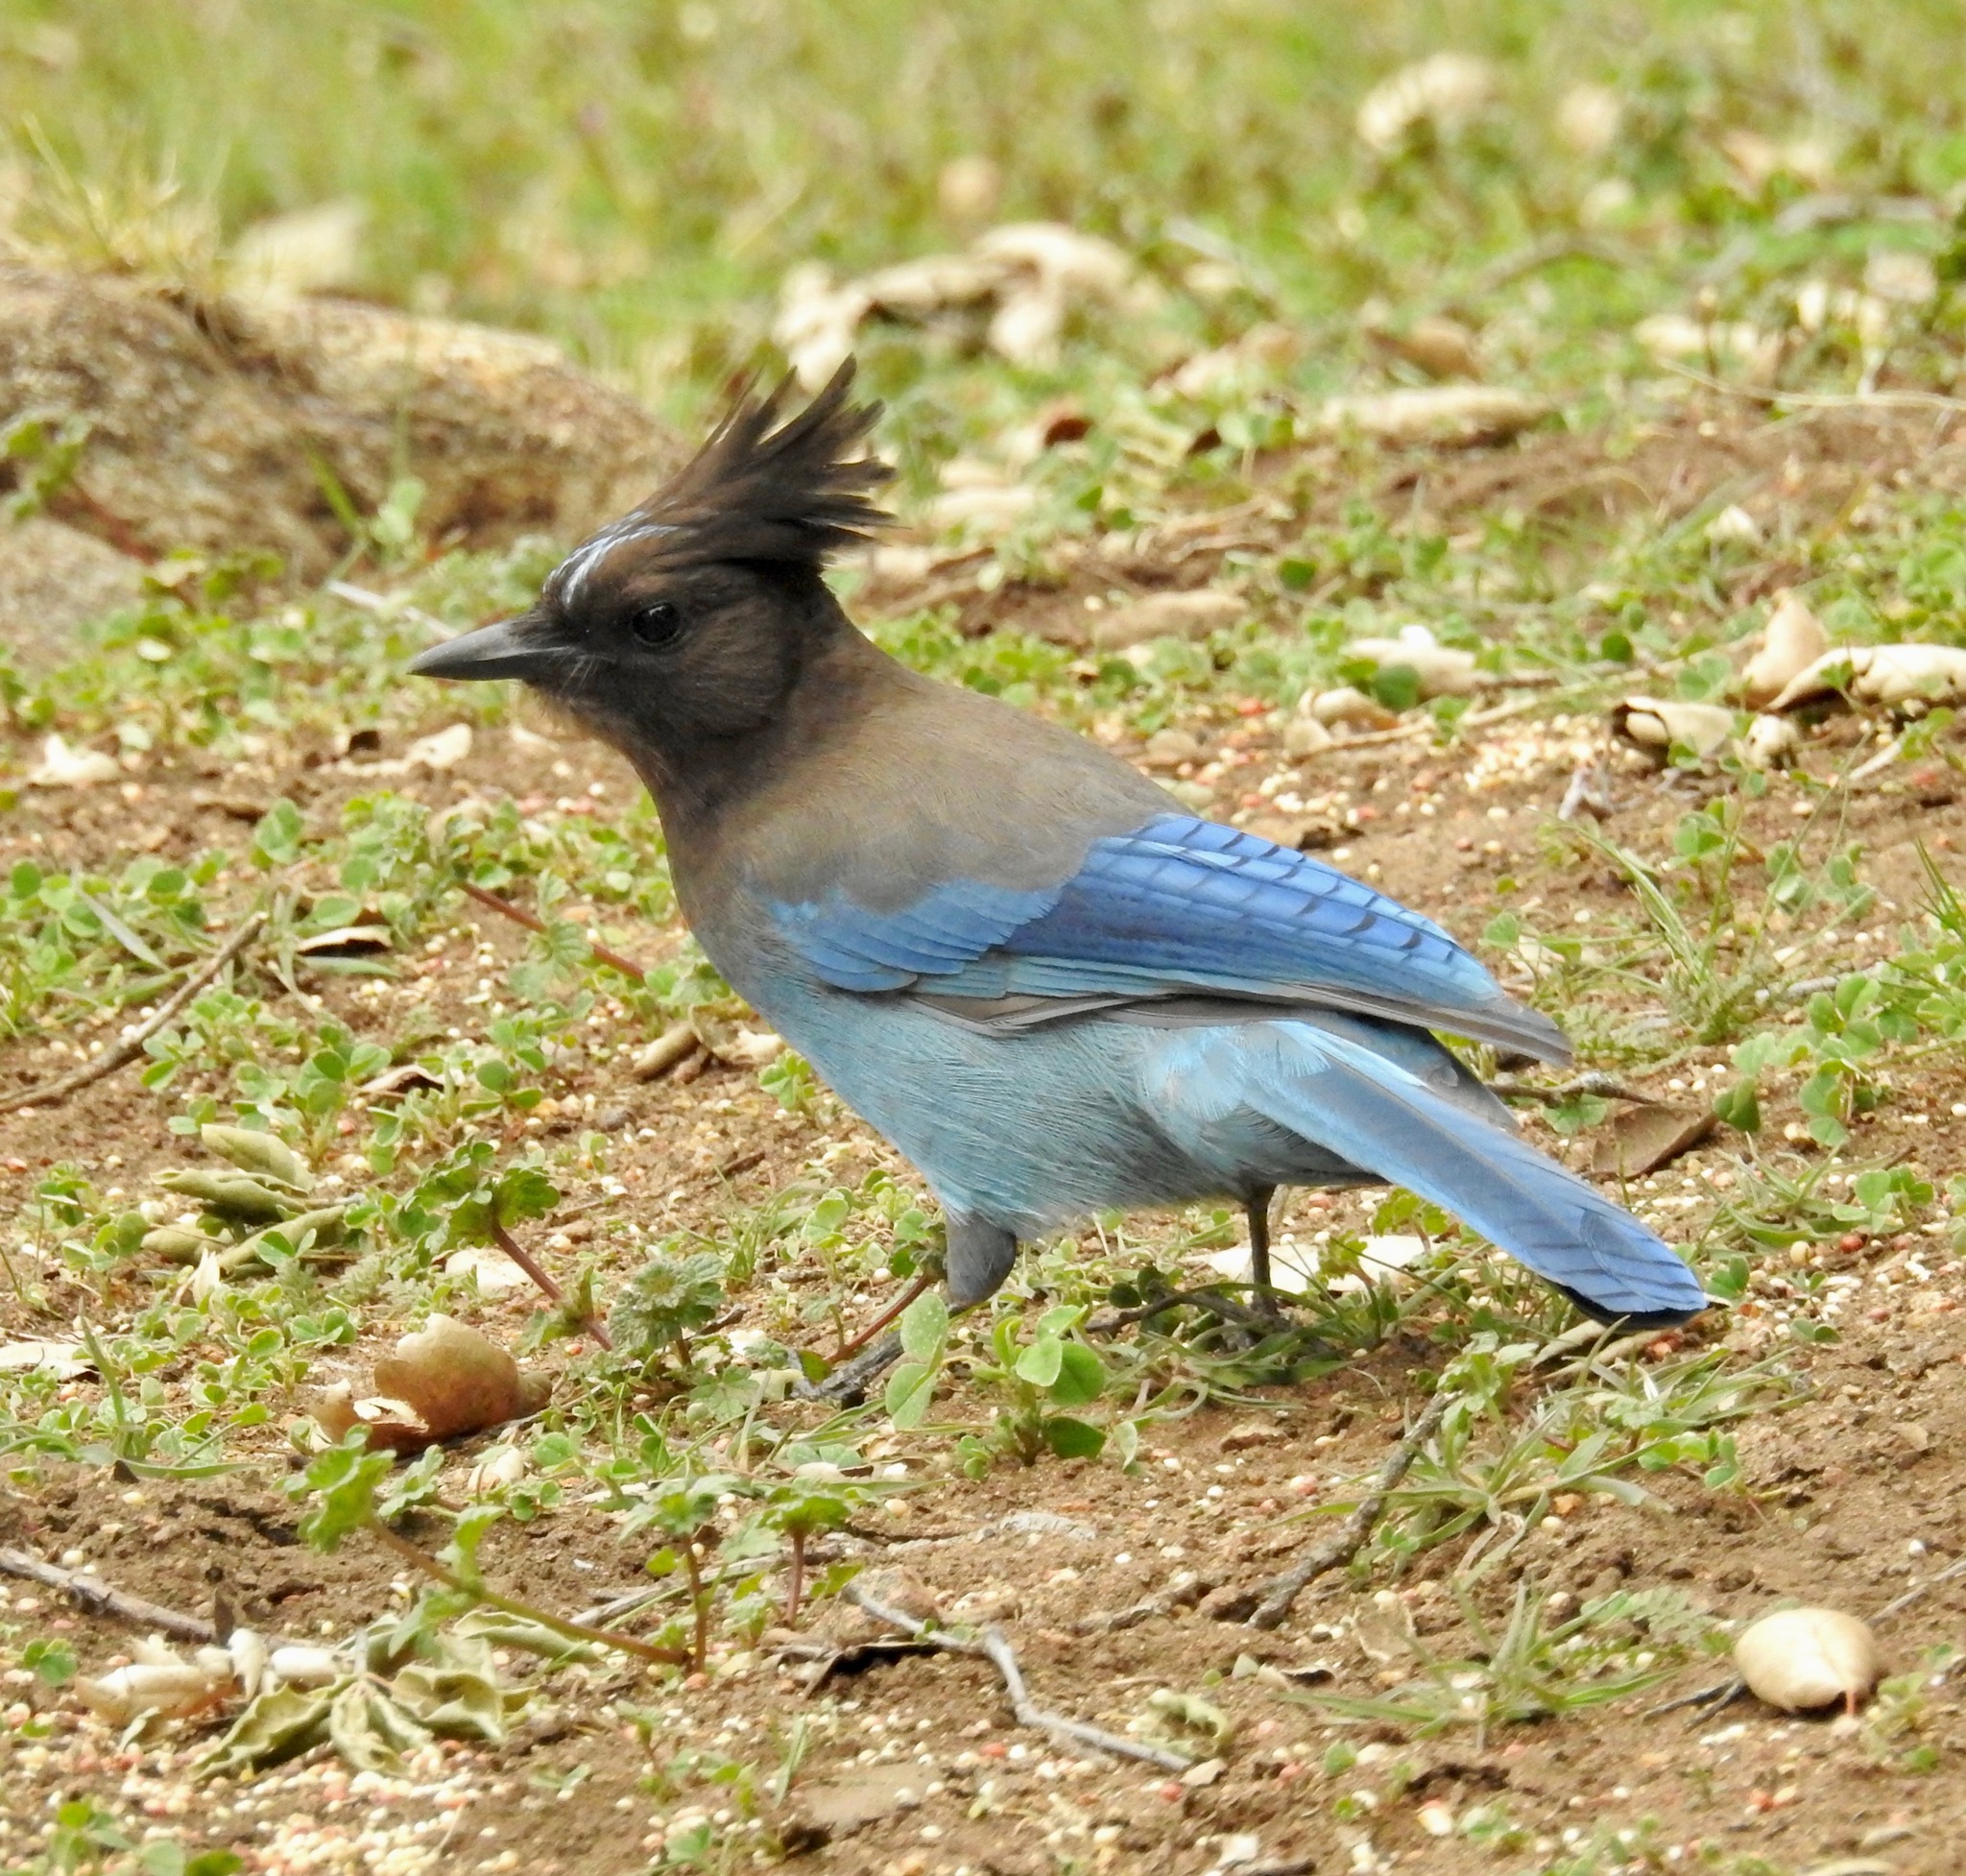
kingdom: Animalia
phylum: Chordata
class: Aves
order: Passeriformes
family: Corvidae
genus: Cyanocitta
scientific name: Cyanocitta stelleri
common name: Steller's jay
